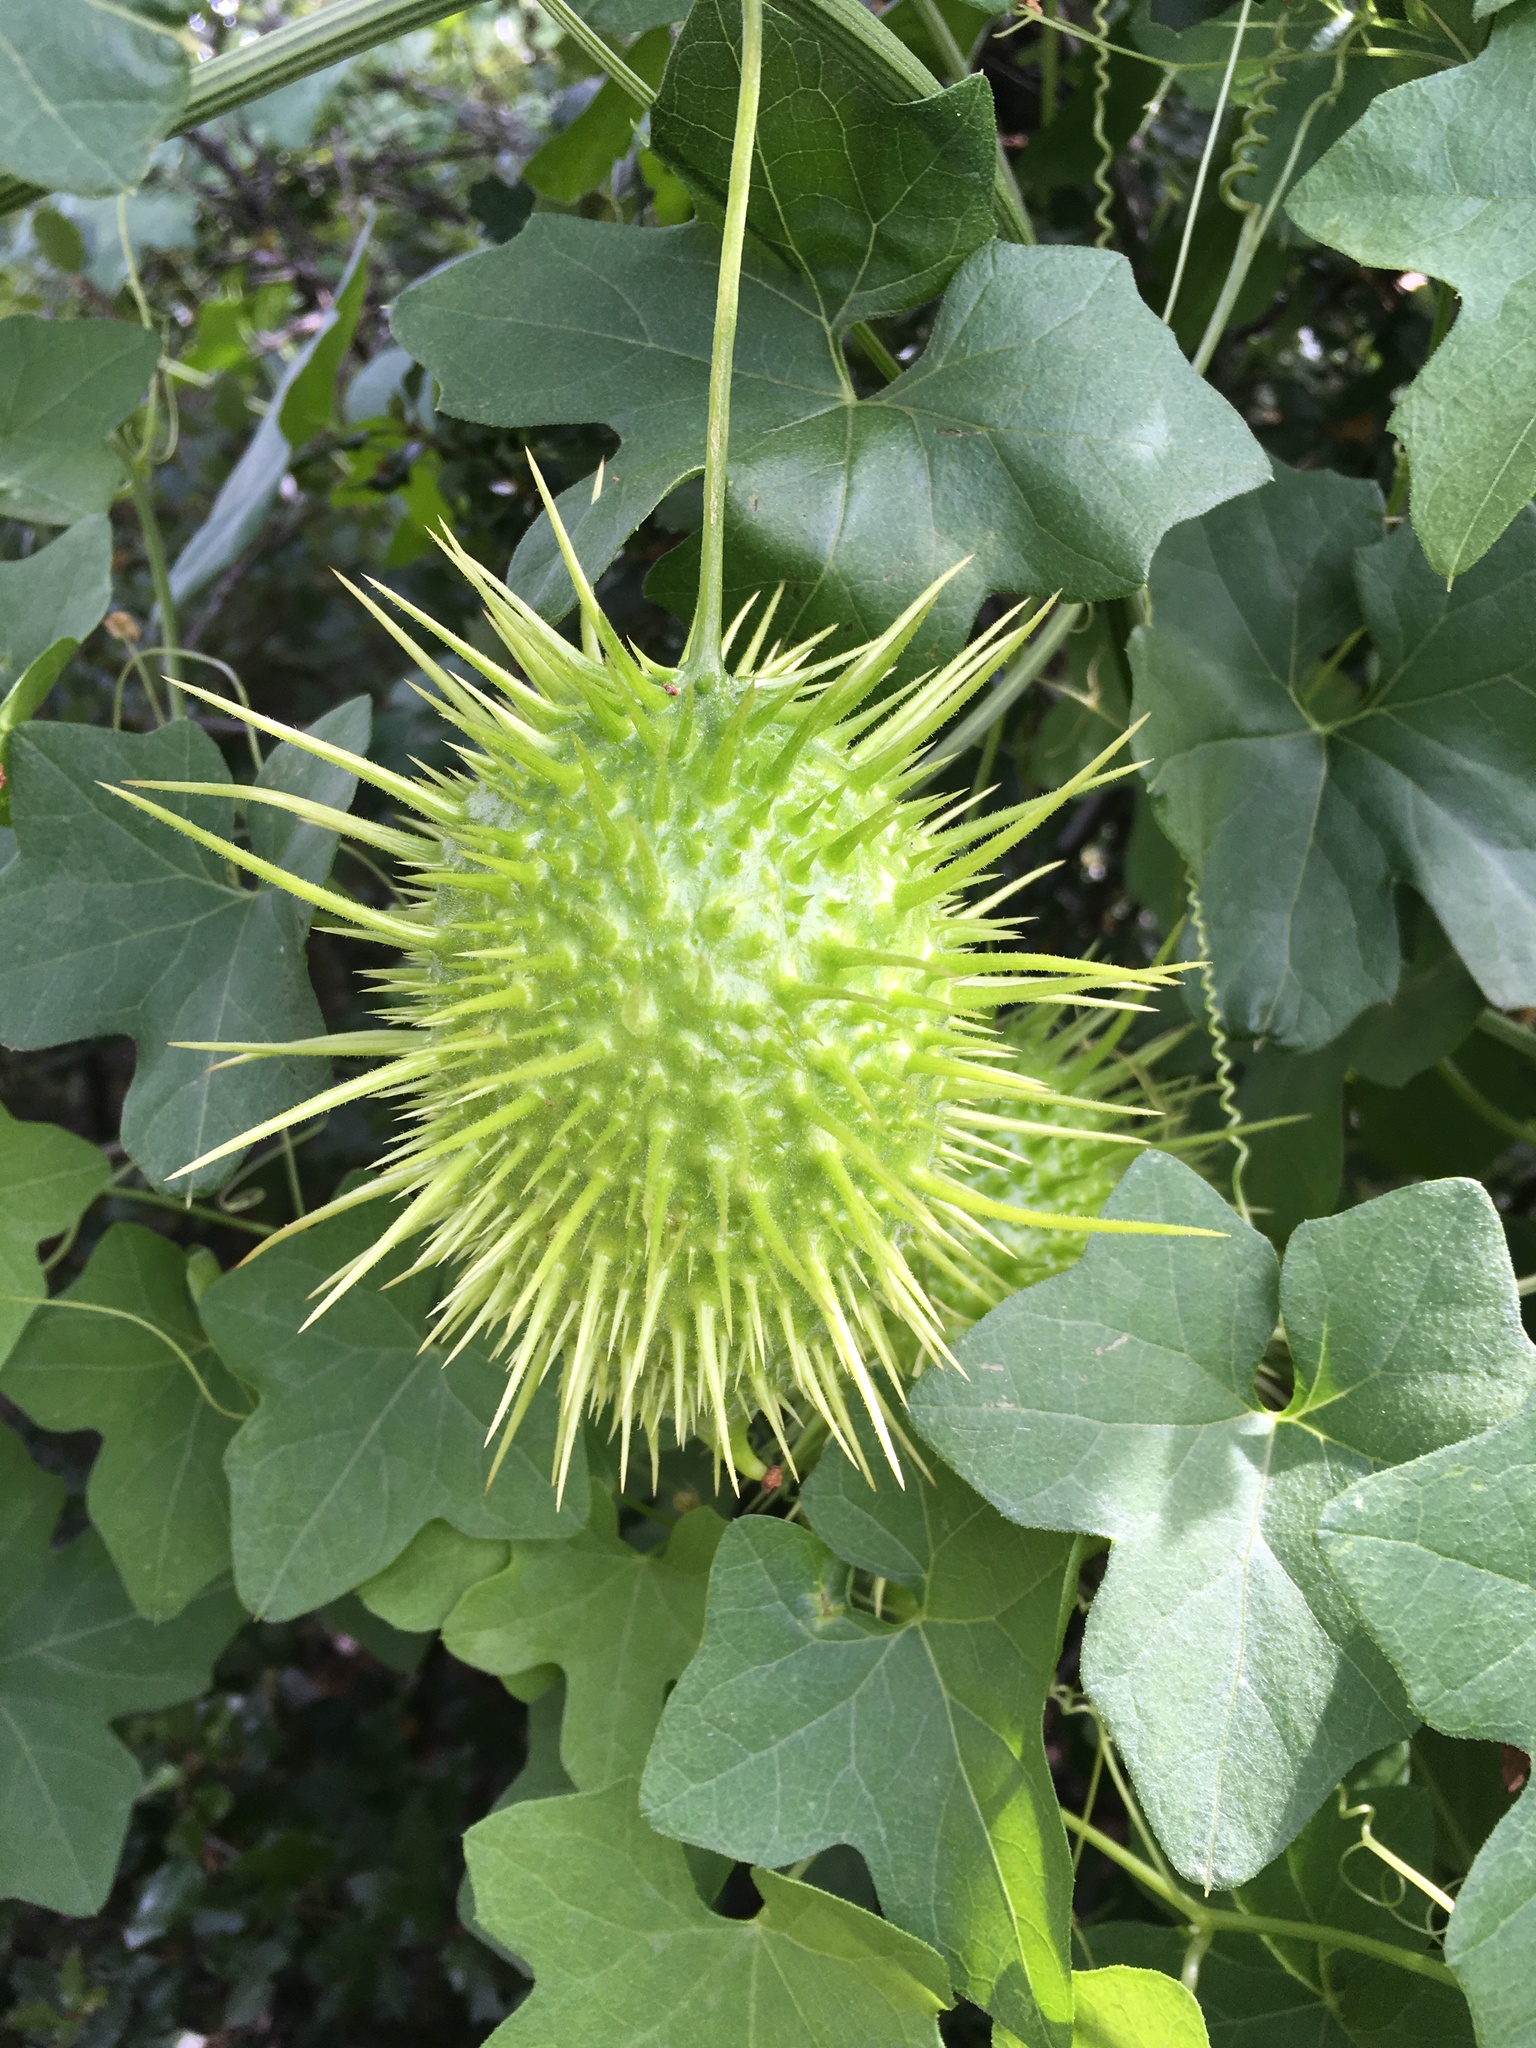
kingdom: Plantae
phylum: Tracheophyta
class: Magnoliopsida
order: Cucurbitales
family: Cucurbitaceae
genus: Marah
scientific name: Marah macrocarpa
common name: Cucamonga manroot
